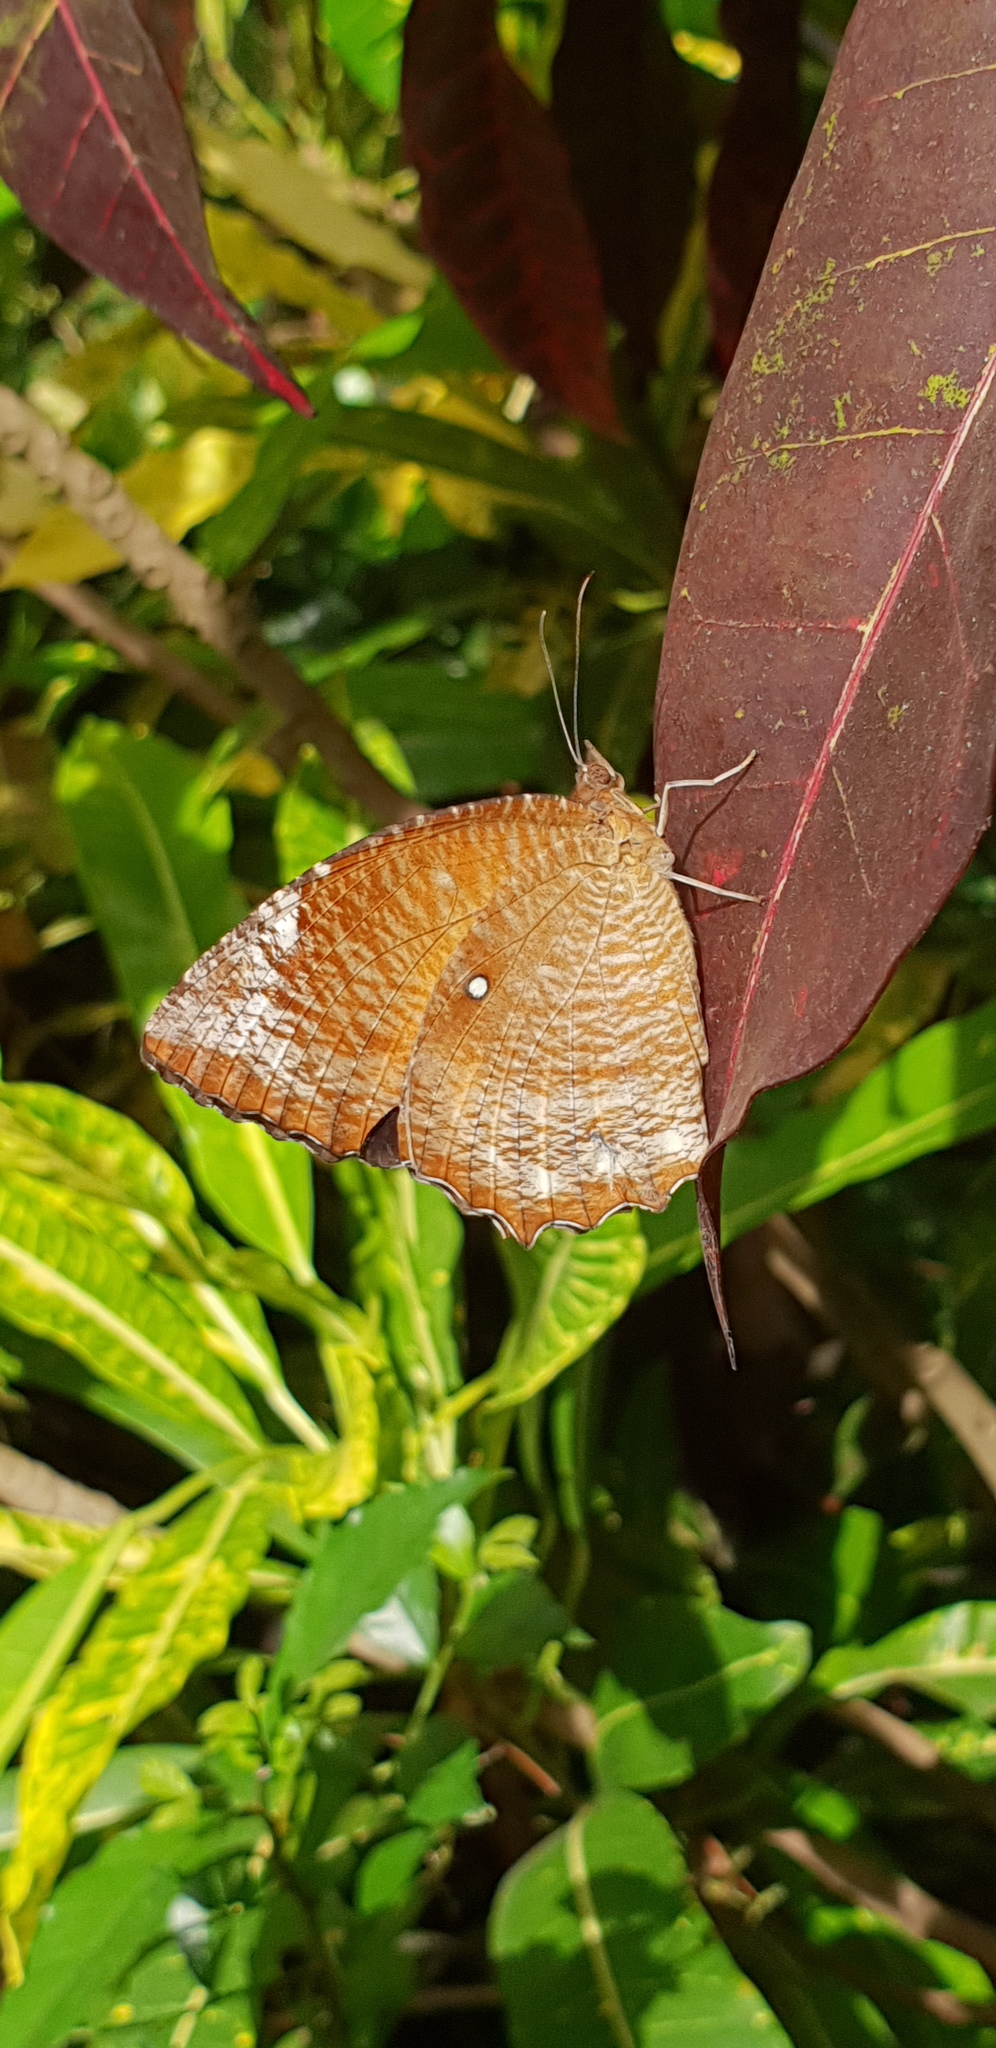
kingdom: Animalia
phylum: Arthropoda
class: Insecta
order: Lepidoptera
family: Nymphalidae
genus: Elymnias
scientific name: Elymnias hypermnestra
